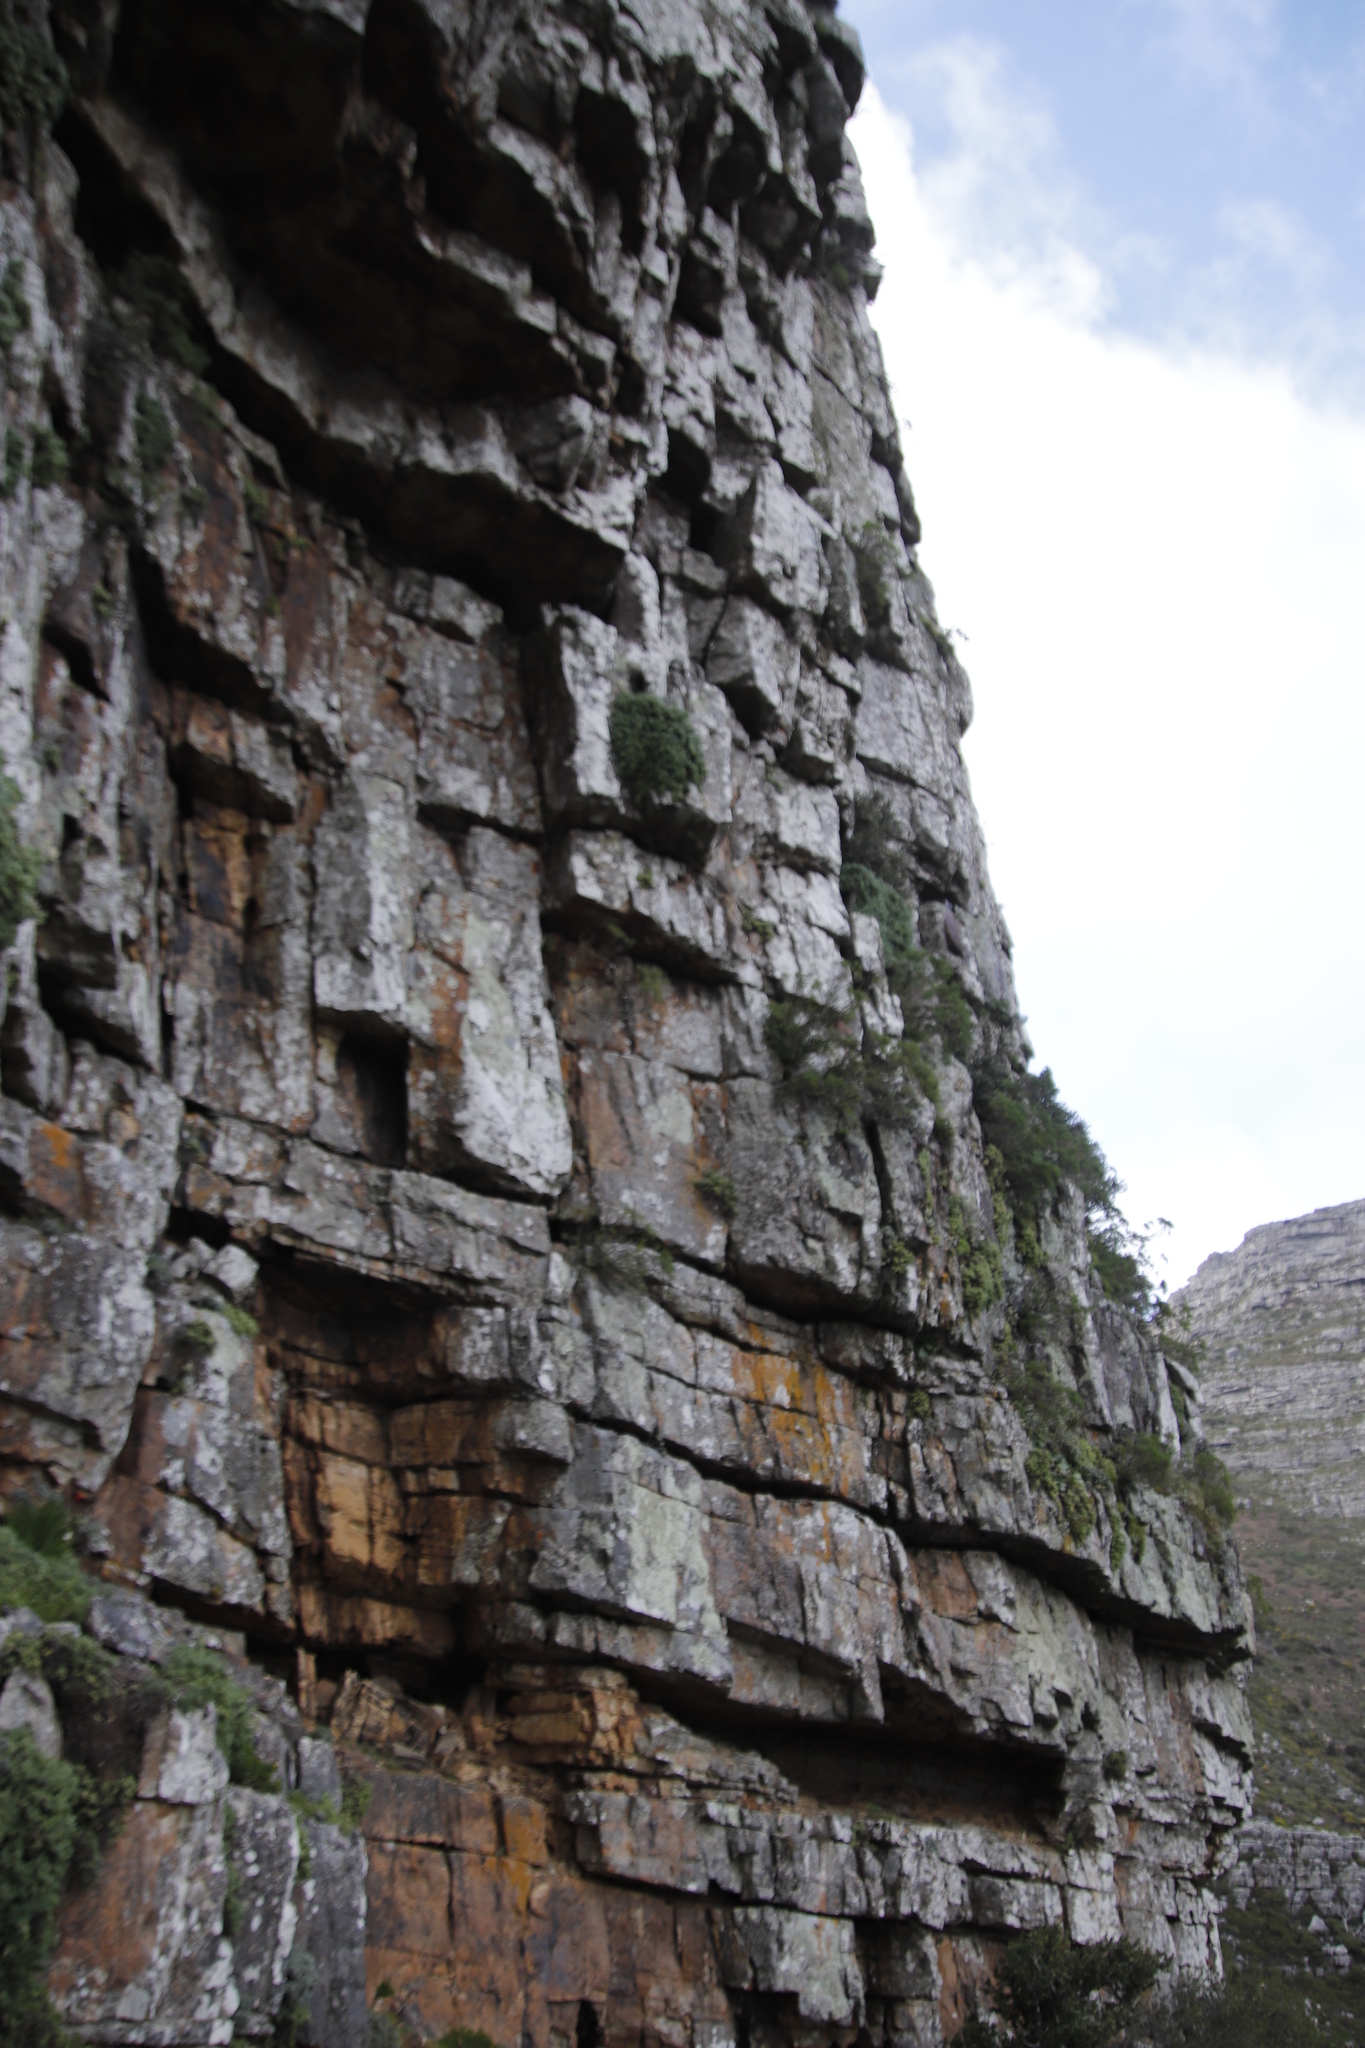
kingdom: Plantae
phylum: Tracheophyta
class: Magnoliopsida
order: Caryophyllales
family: Aizoaceae
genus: Scopelogena
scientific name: Scopelogena verruculata
